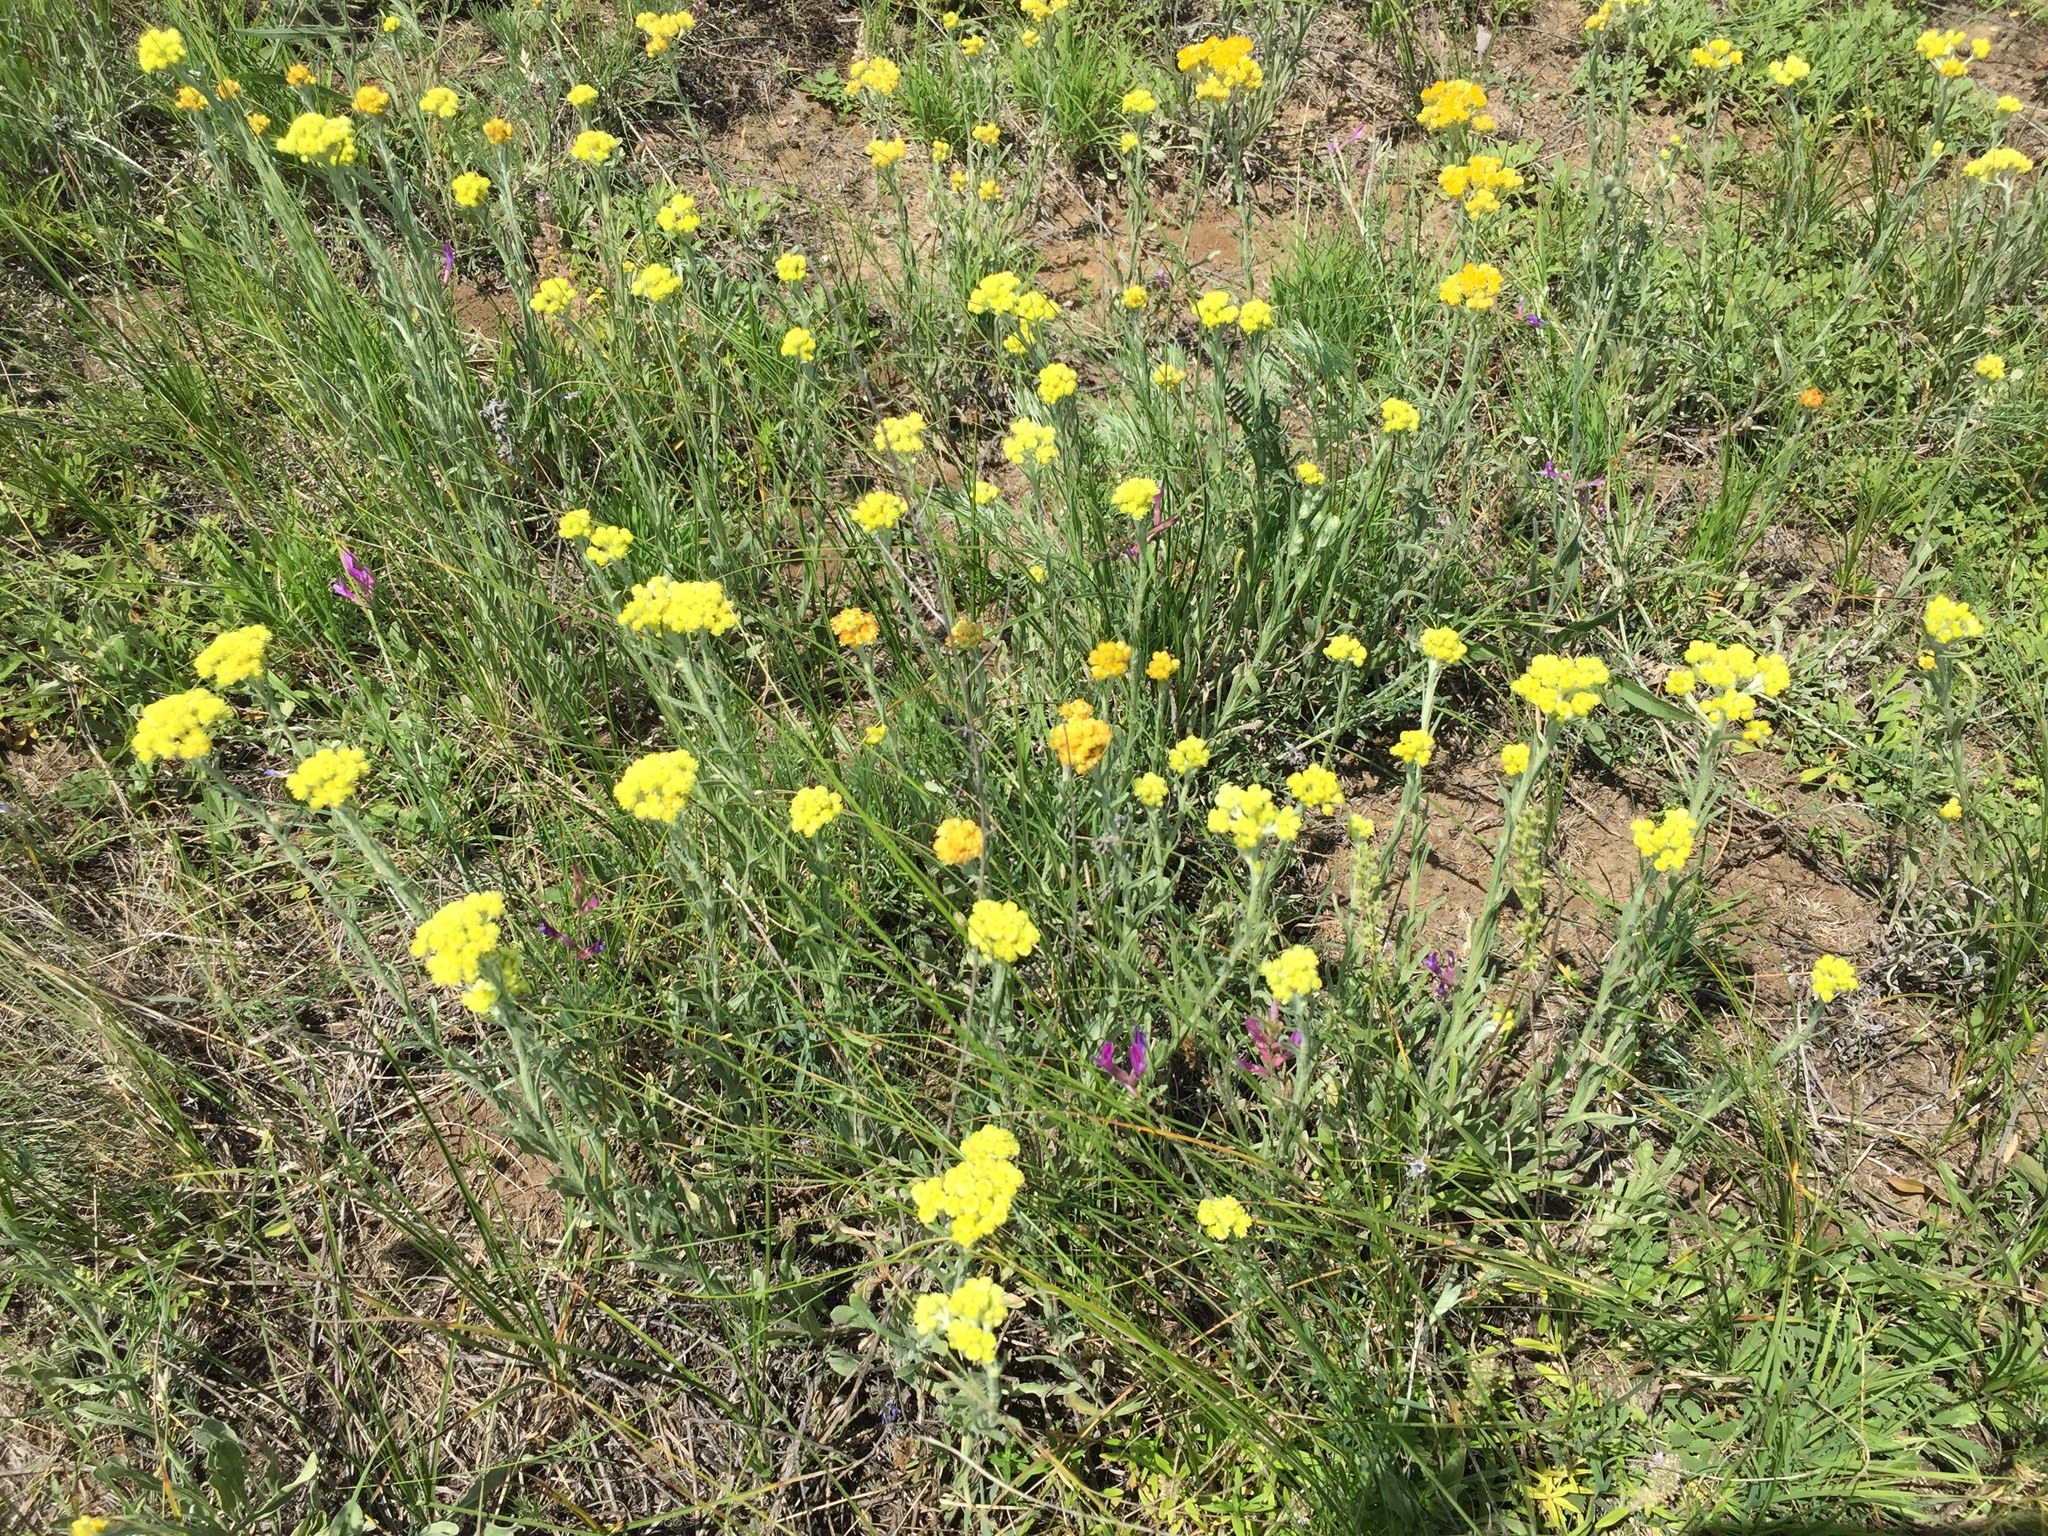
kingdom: Plantae
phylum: Tracheophyta
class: Magnoliopsida
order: Asterales
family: Asteraceae
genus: Helichrysum
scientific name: Helichrysum arenarium
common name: Strawflower
